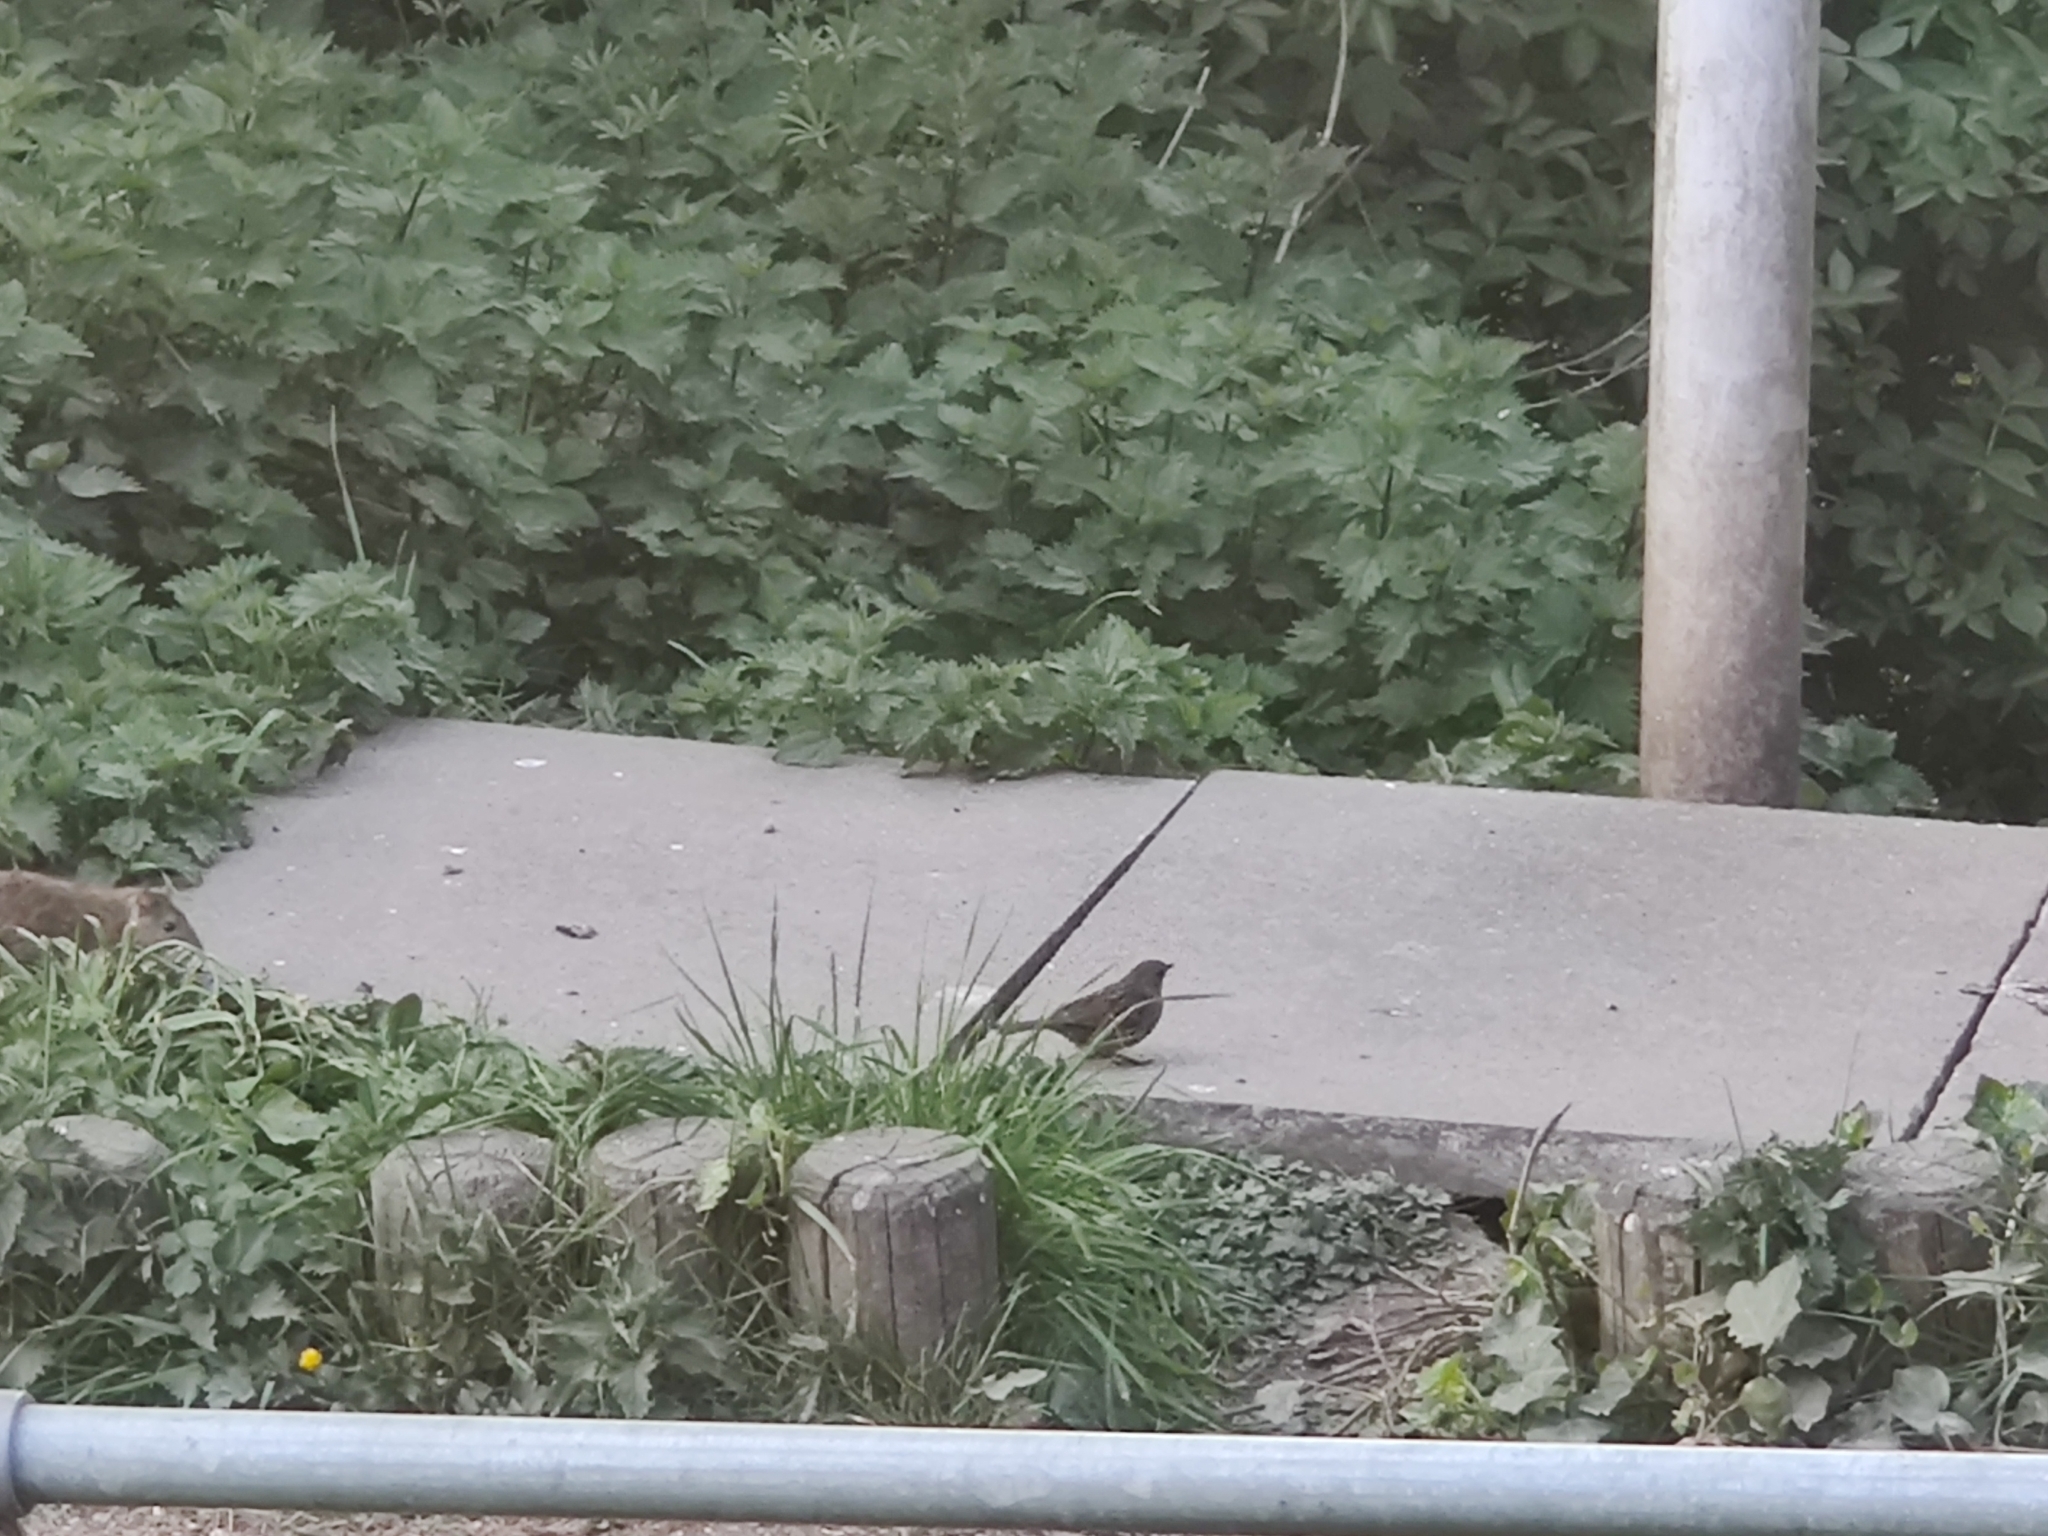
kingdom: Animalia
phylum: Chordata
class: Aves
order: Passeriformes
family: Prunellidae
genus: Prunella
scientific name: Prunella modularis
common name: Dunnock
